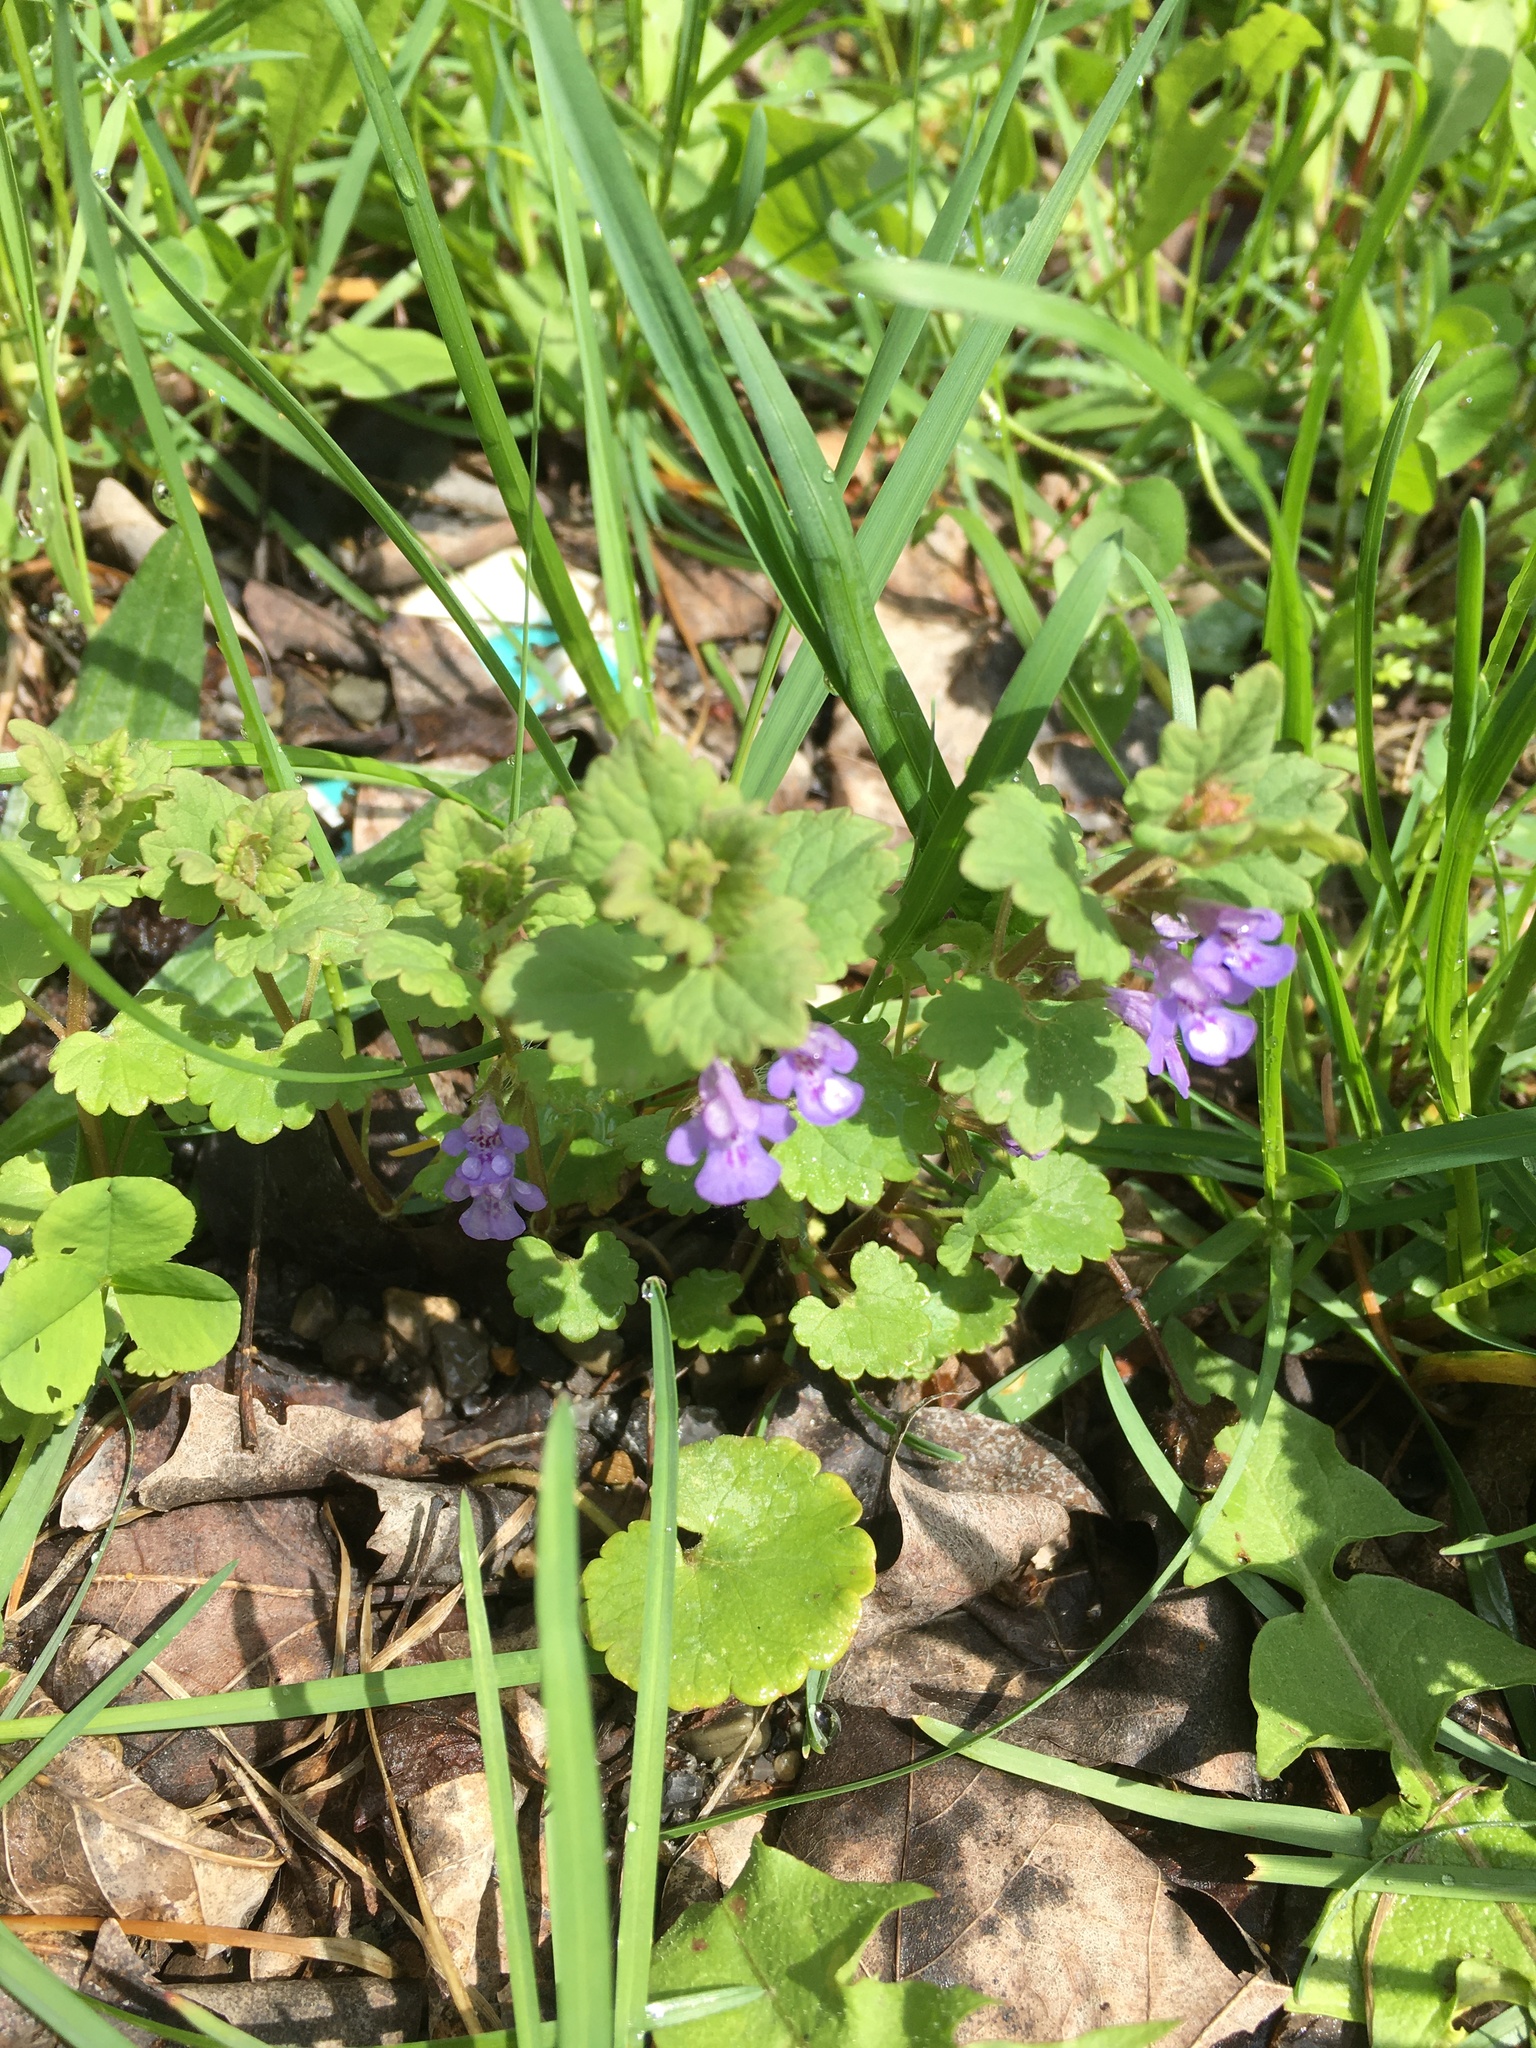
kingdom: Plantae
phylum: Tracheophyta
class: Magnoliopsida
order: Lamiales
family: Lamiaceae
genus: Glechoma
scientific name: Glechoma hederacea
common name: Ground ivy
